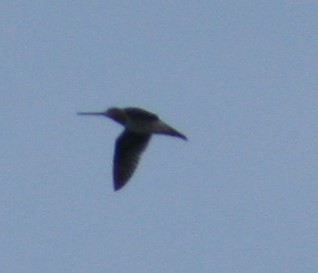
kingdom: Animalia
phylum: Chordata
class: Aves
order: Charadriiformes
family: Scolopacidae
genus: Gallinago
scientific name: Gallinago delicata
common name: Wilson's snipe
